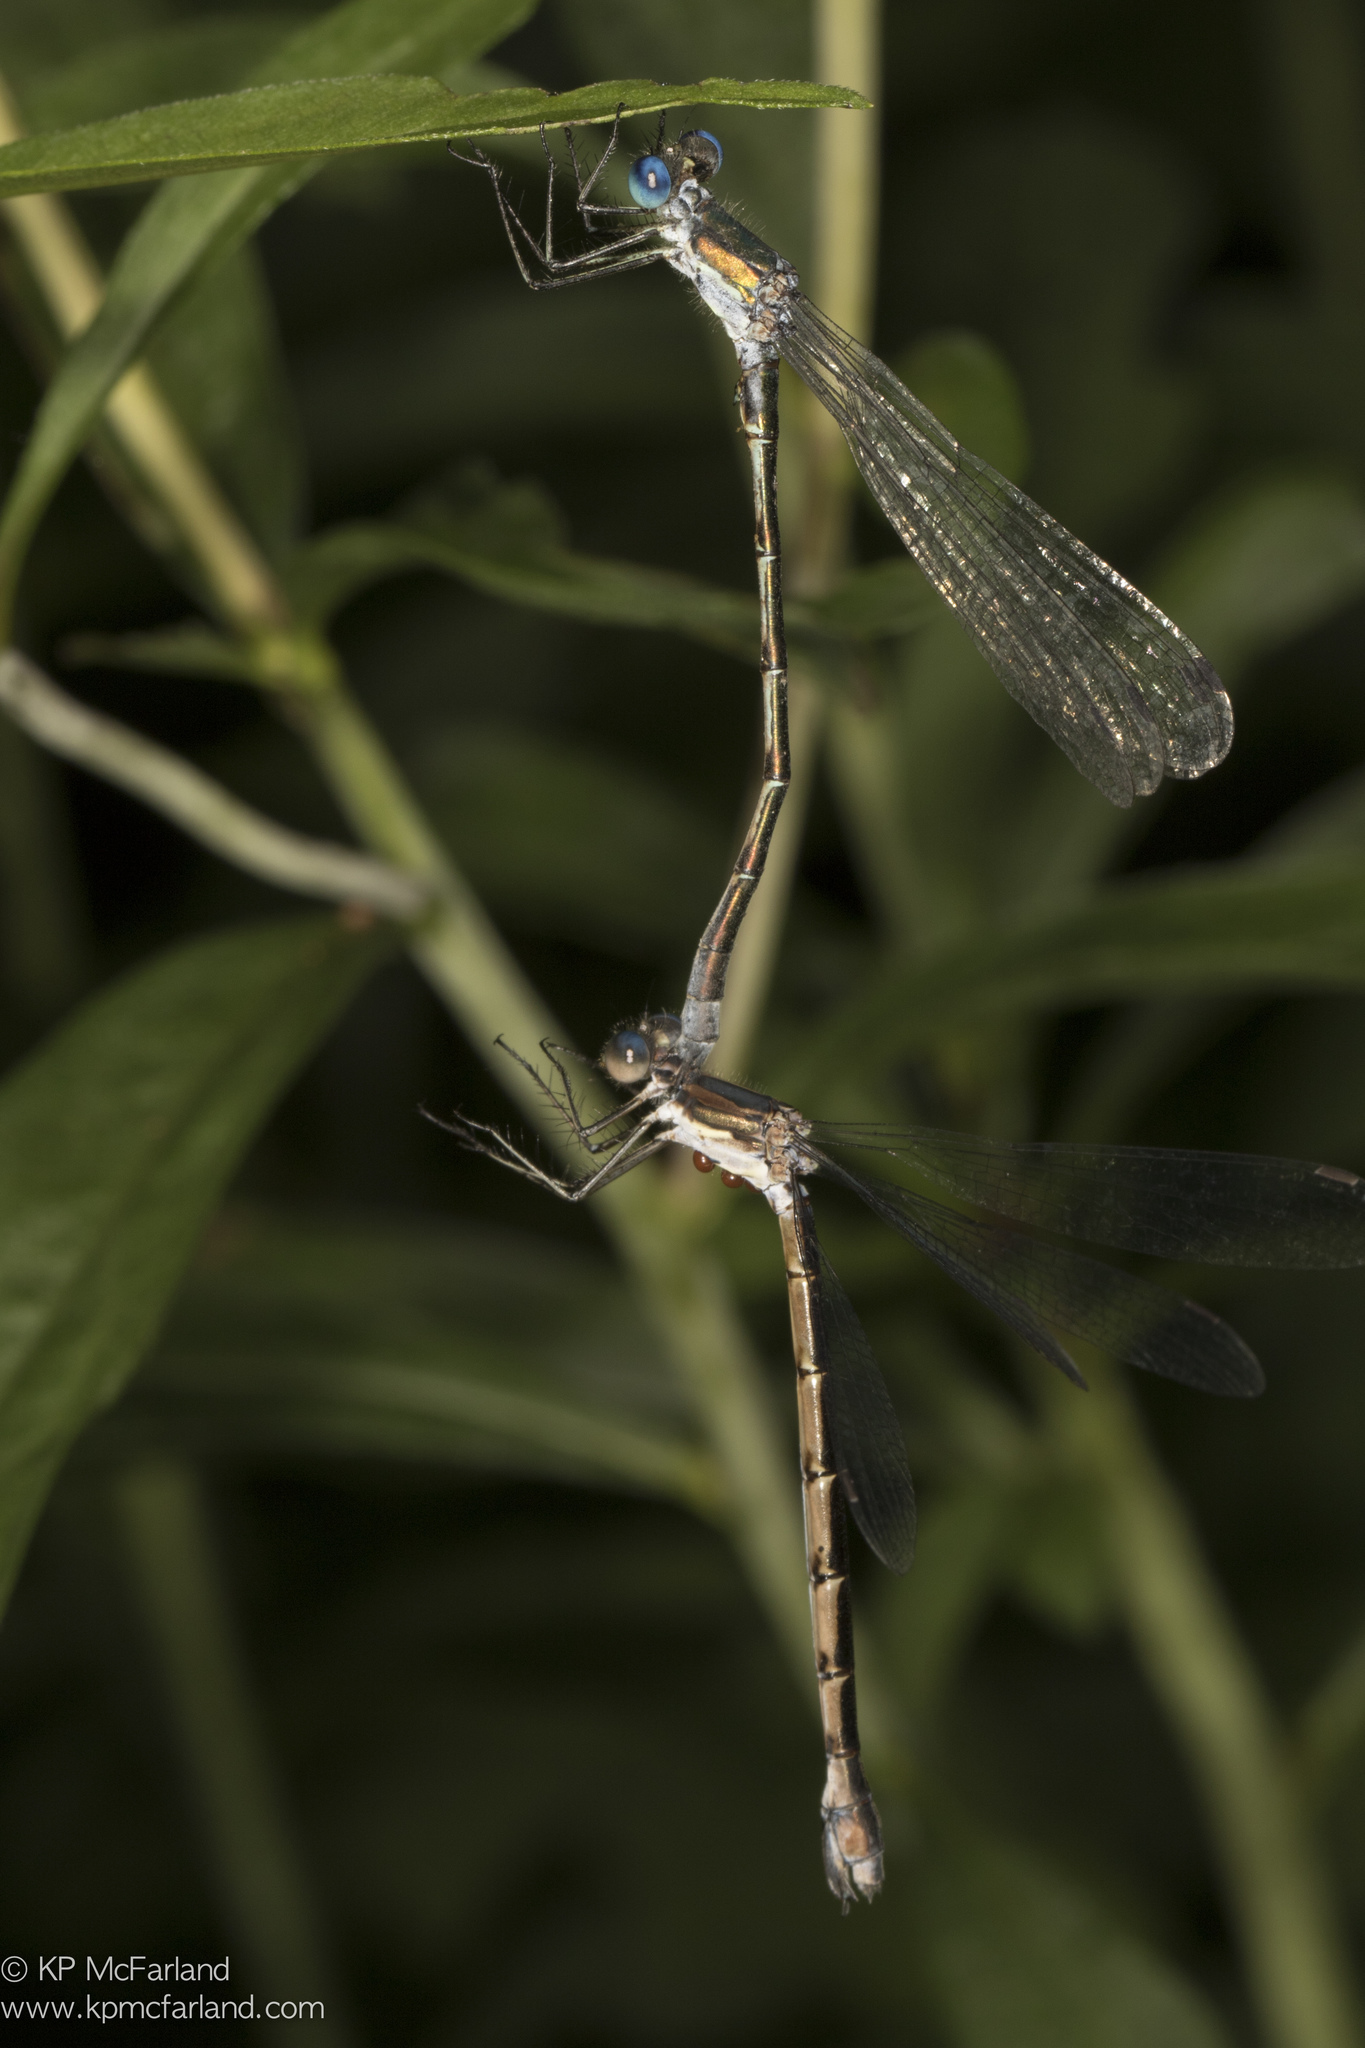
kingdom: Animalia
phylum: Arthropoda
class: Insecta
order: Odonata
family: Lestidae
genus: Lestes
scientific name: Lestes forcipatus
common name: Sweetflag spreadwing
